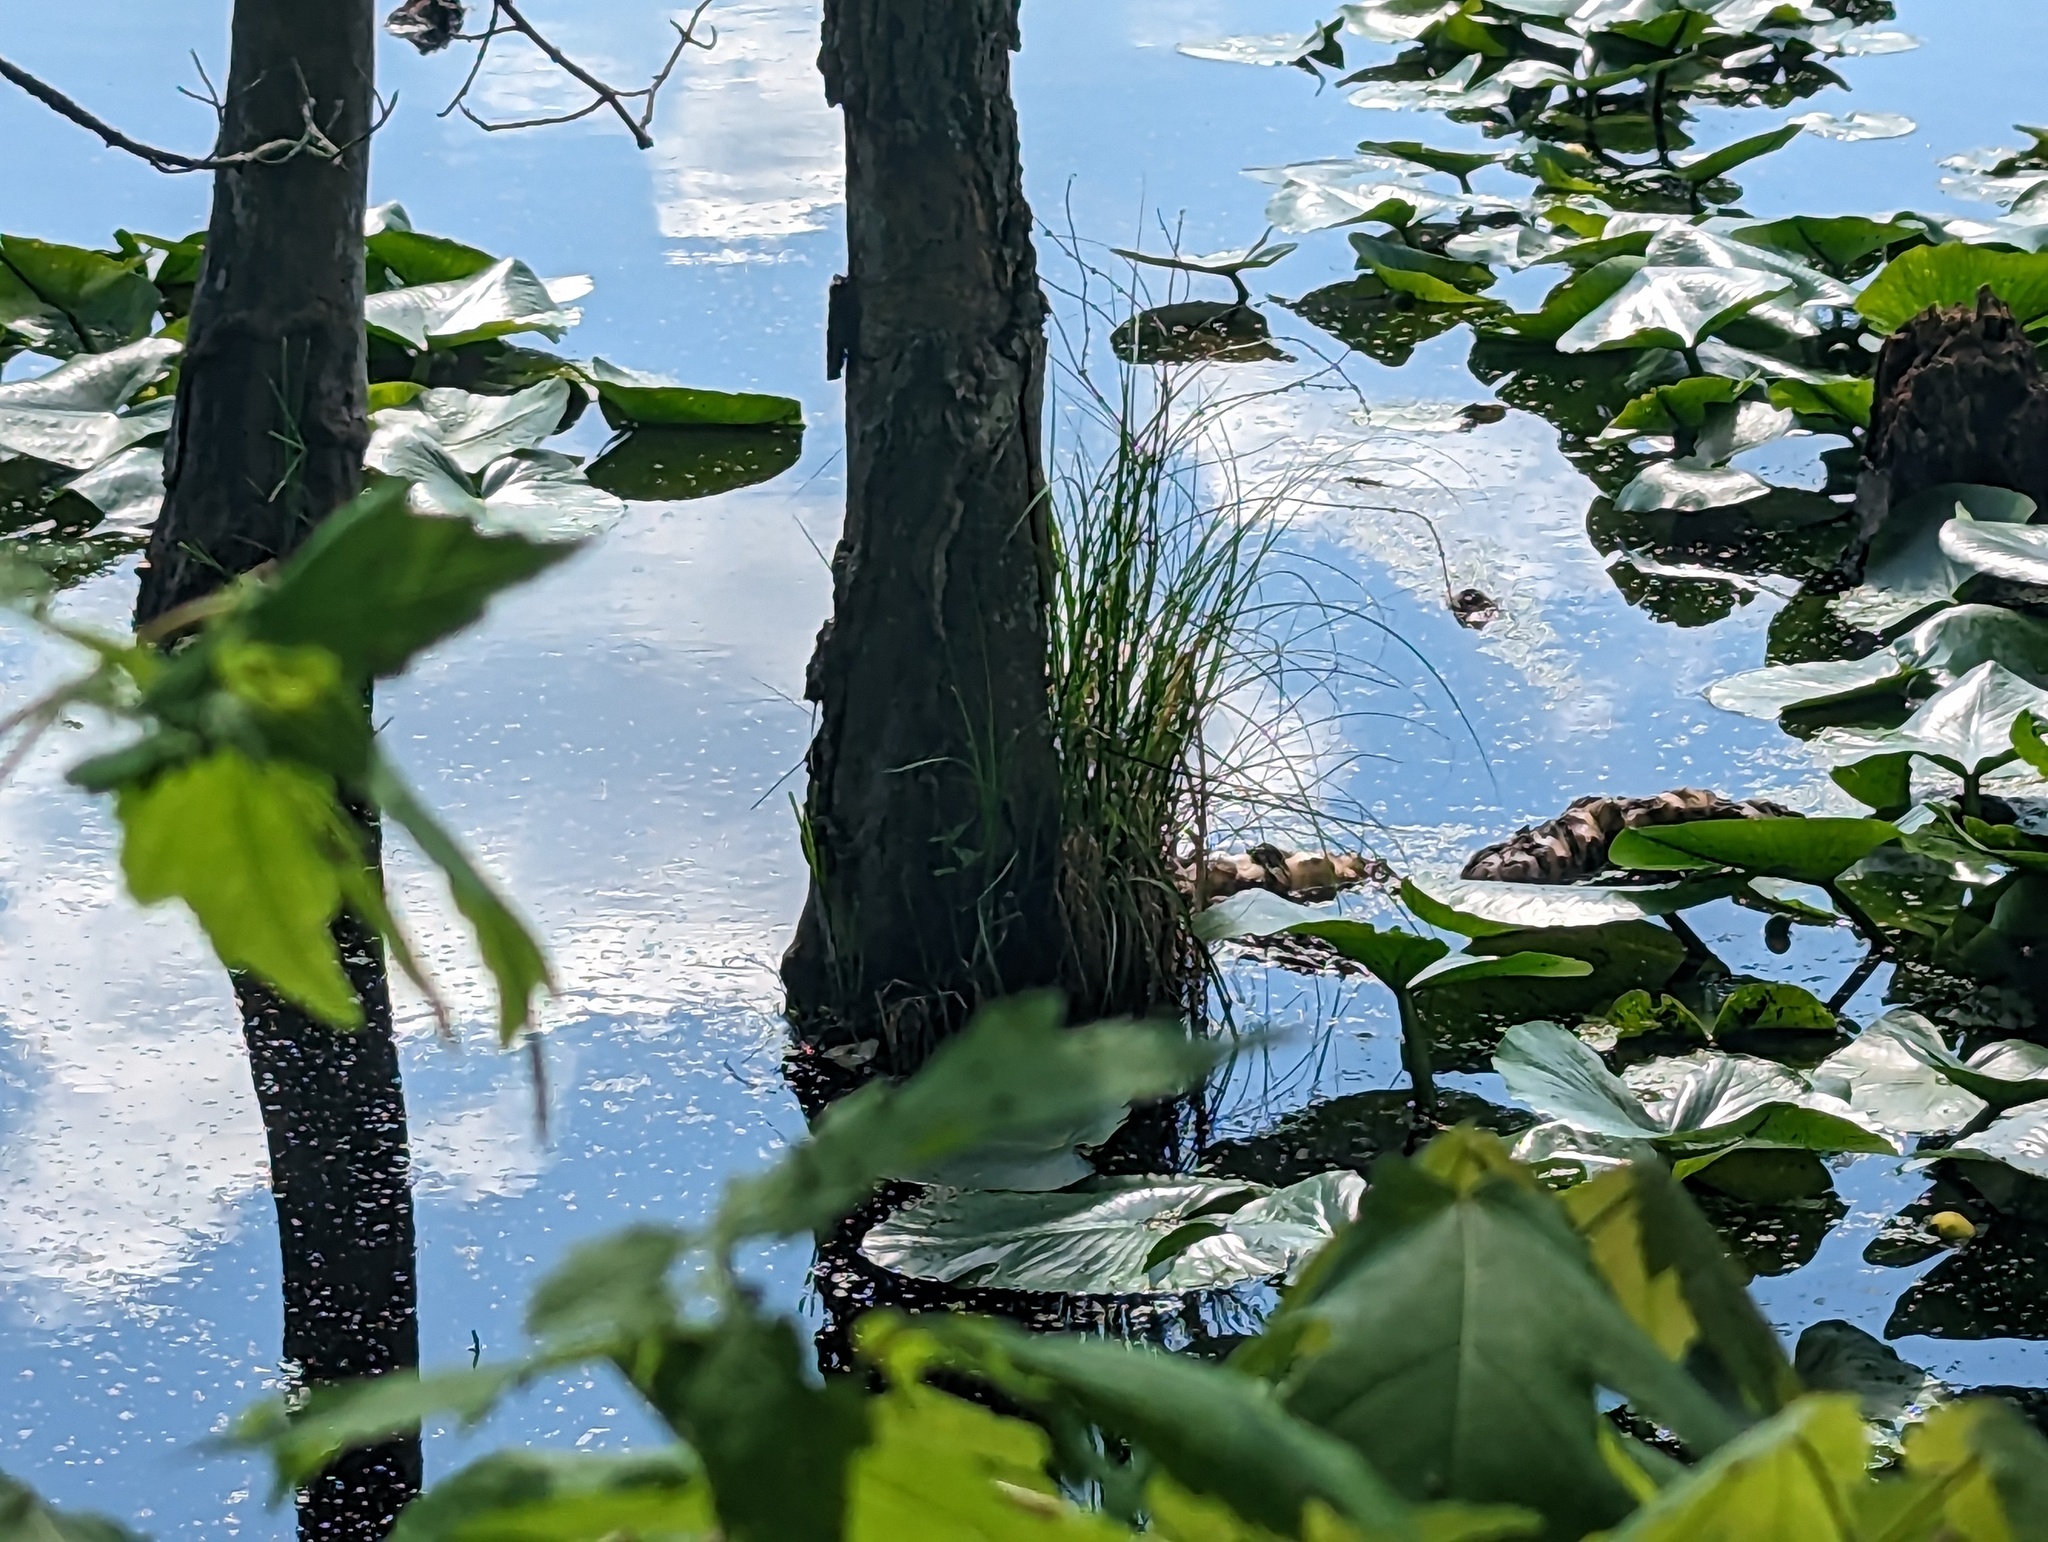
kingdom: Plantae
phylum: Tracheophyta
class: Liliopsida
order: Poales
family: Cyperaceae
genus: Carex
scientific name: Carex decomposita
